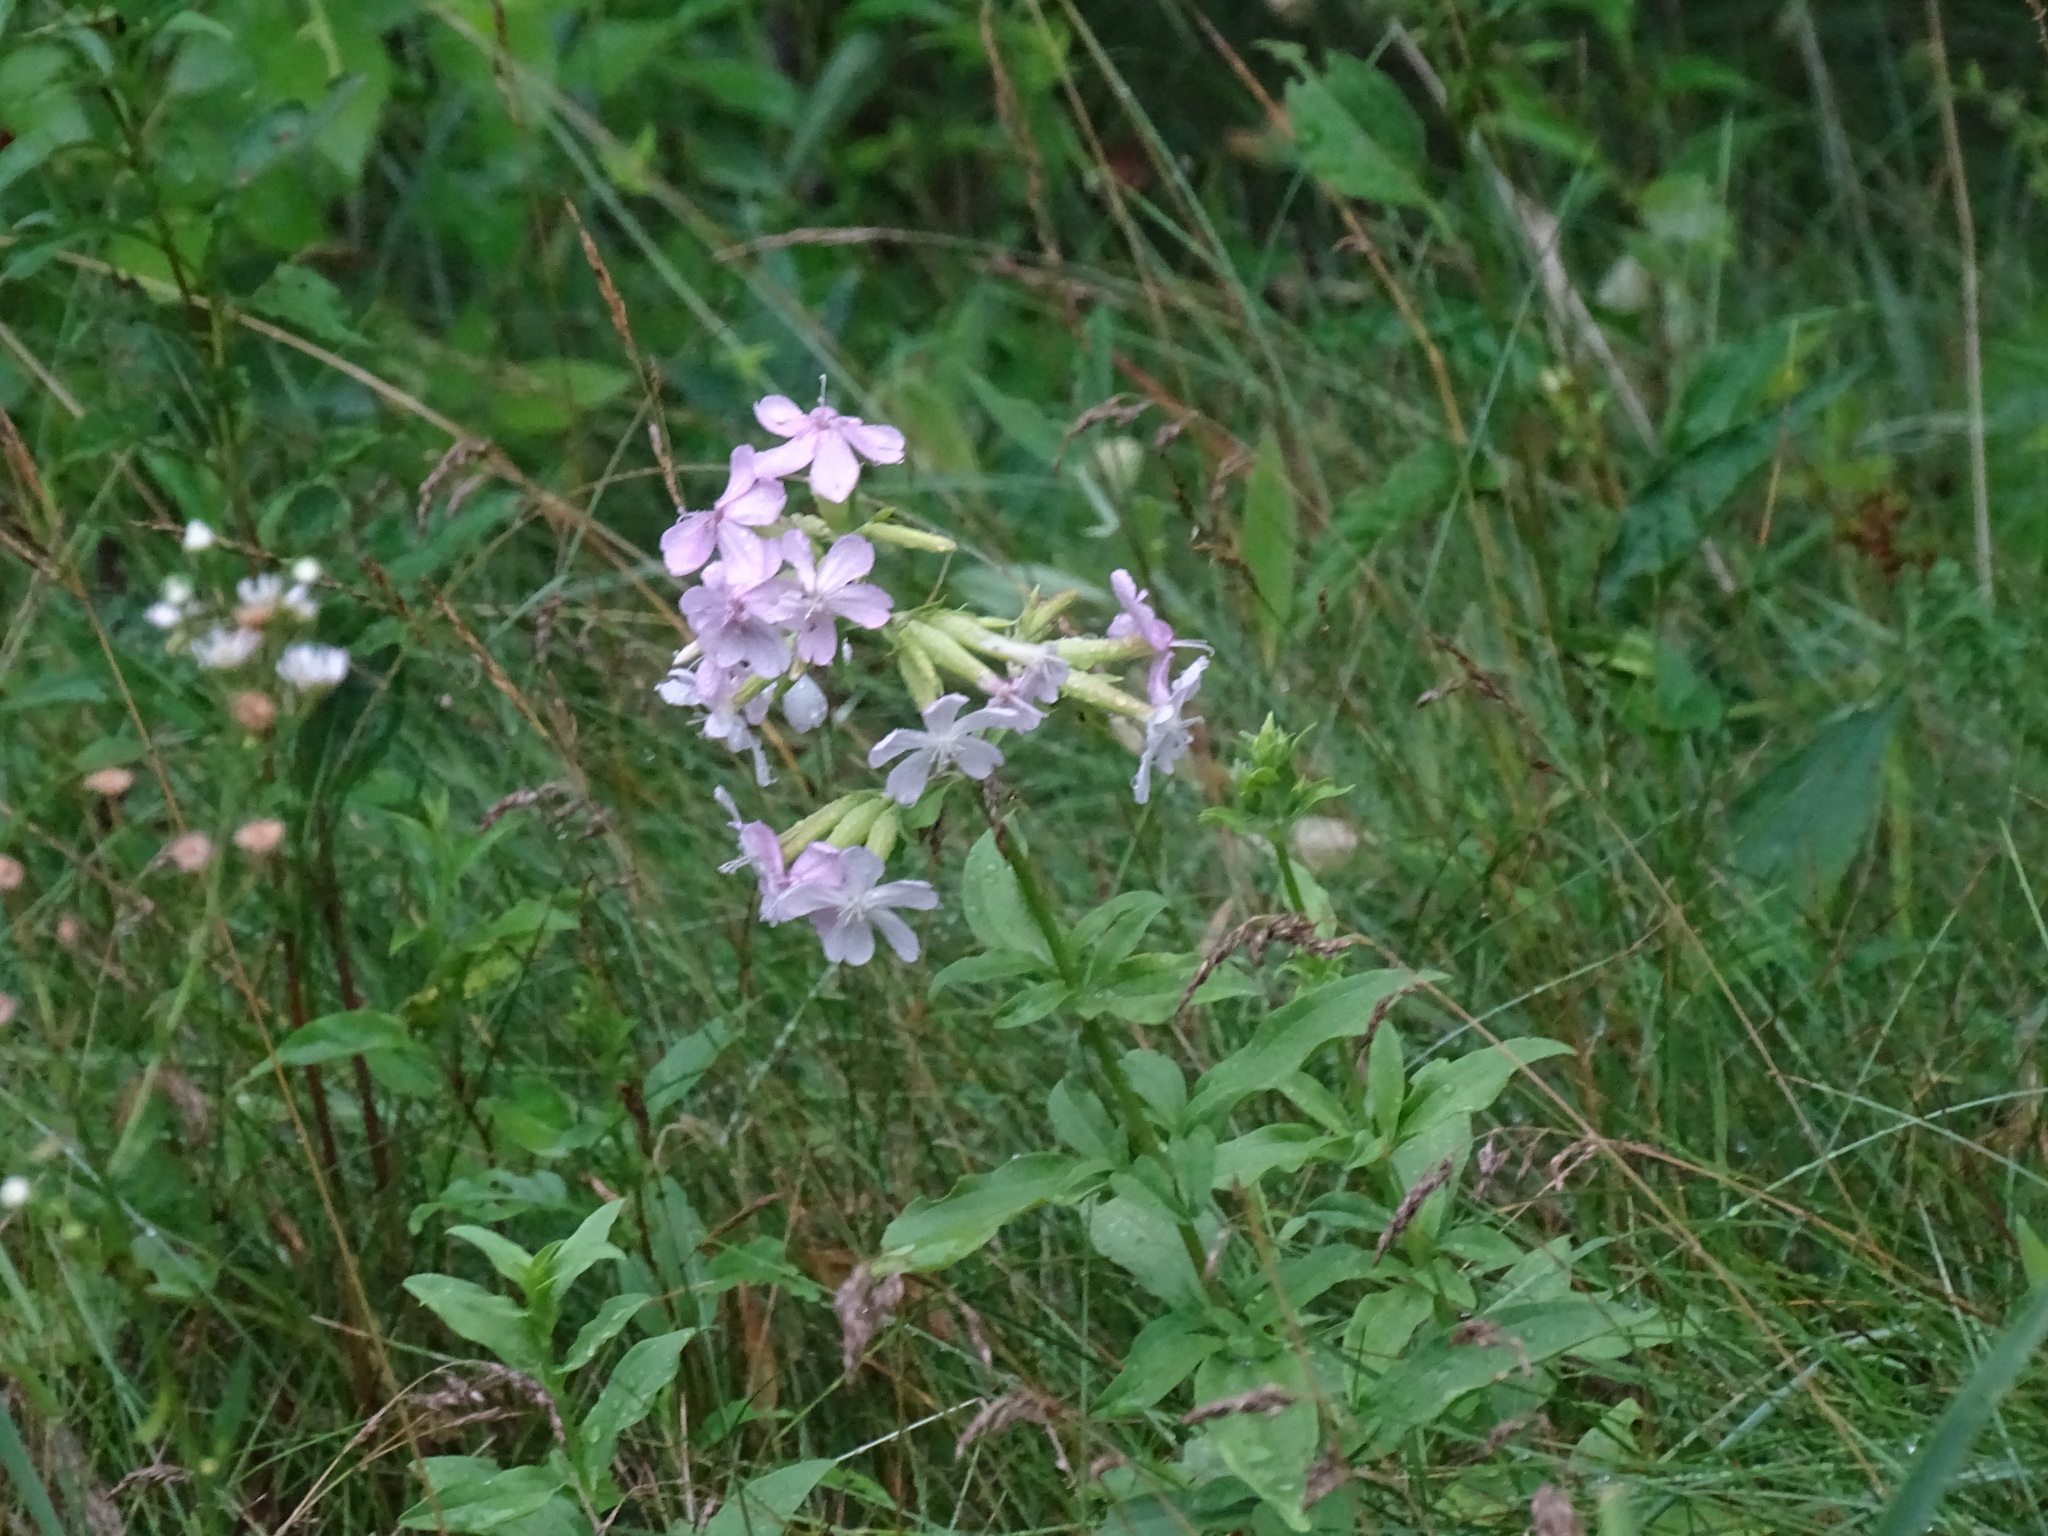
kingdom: Plantae
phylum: Tracheophyta
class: Magnoliopsida
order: Caryophyllales
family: Caryophyllaceae
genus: Saponaria
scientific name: Saponaria officinalis
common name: Soapwort
